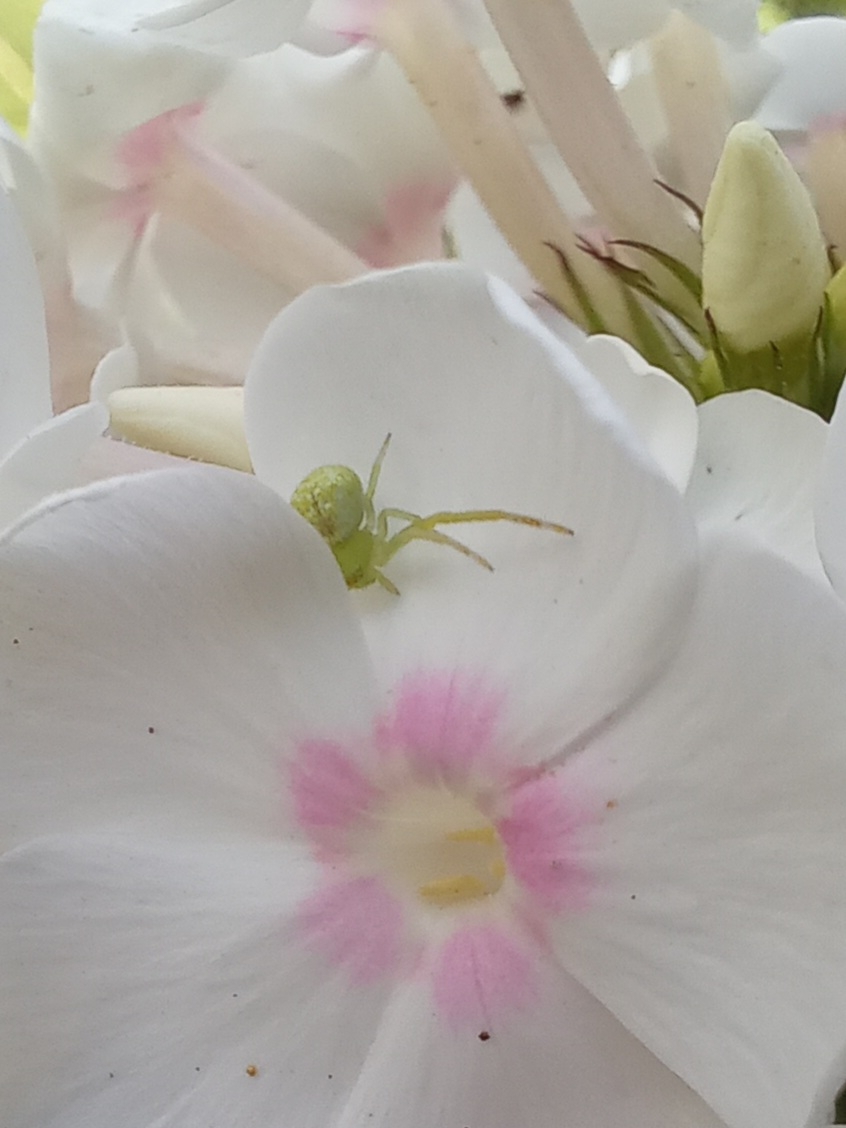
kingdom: Animalia
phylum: Arthropoda
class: Arachnida
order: Araneae
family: Thomisidae
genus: Ebrechtella
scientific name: Ebrechtella tricuspidata
